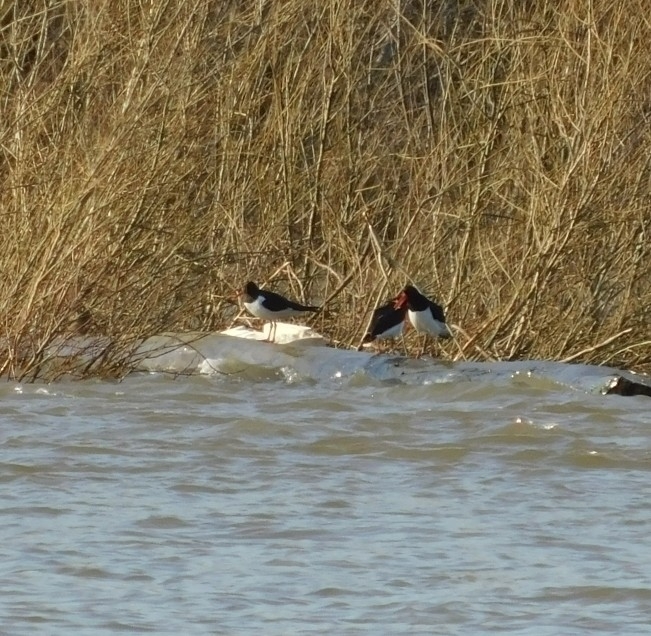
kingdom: Animalia
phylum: Chordata
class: Aves
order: Charadriiformes
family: Haematopodidae
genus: Haematopus
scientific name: Haematopus ostralegus
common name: Eurasian oystercatcher
